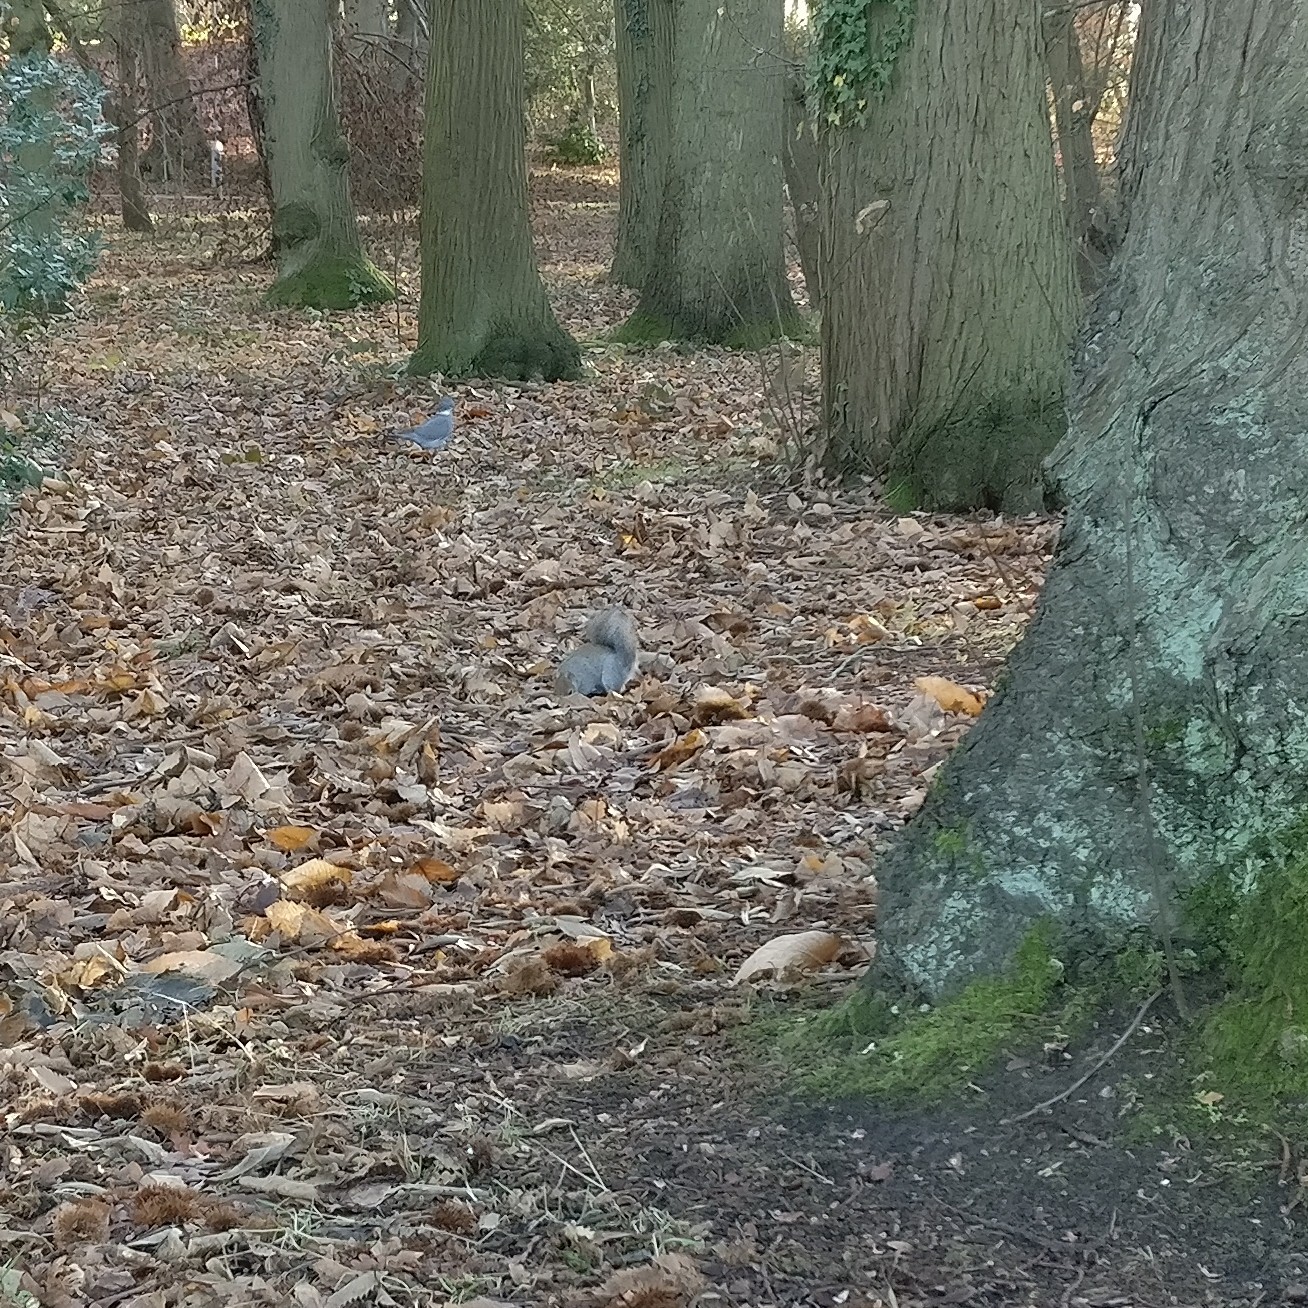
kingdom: Animalia
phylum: Chordata
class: Mammalia
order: Rodentia
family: Sciuridae
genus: Sciurus
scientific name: Sciurus carolinensis
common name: Eastern gray squirrel
